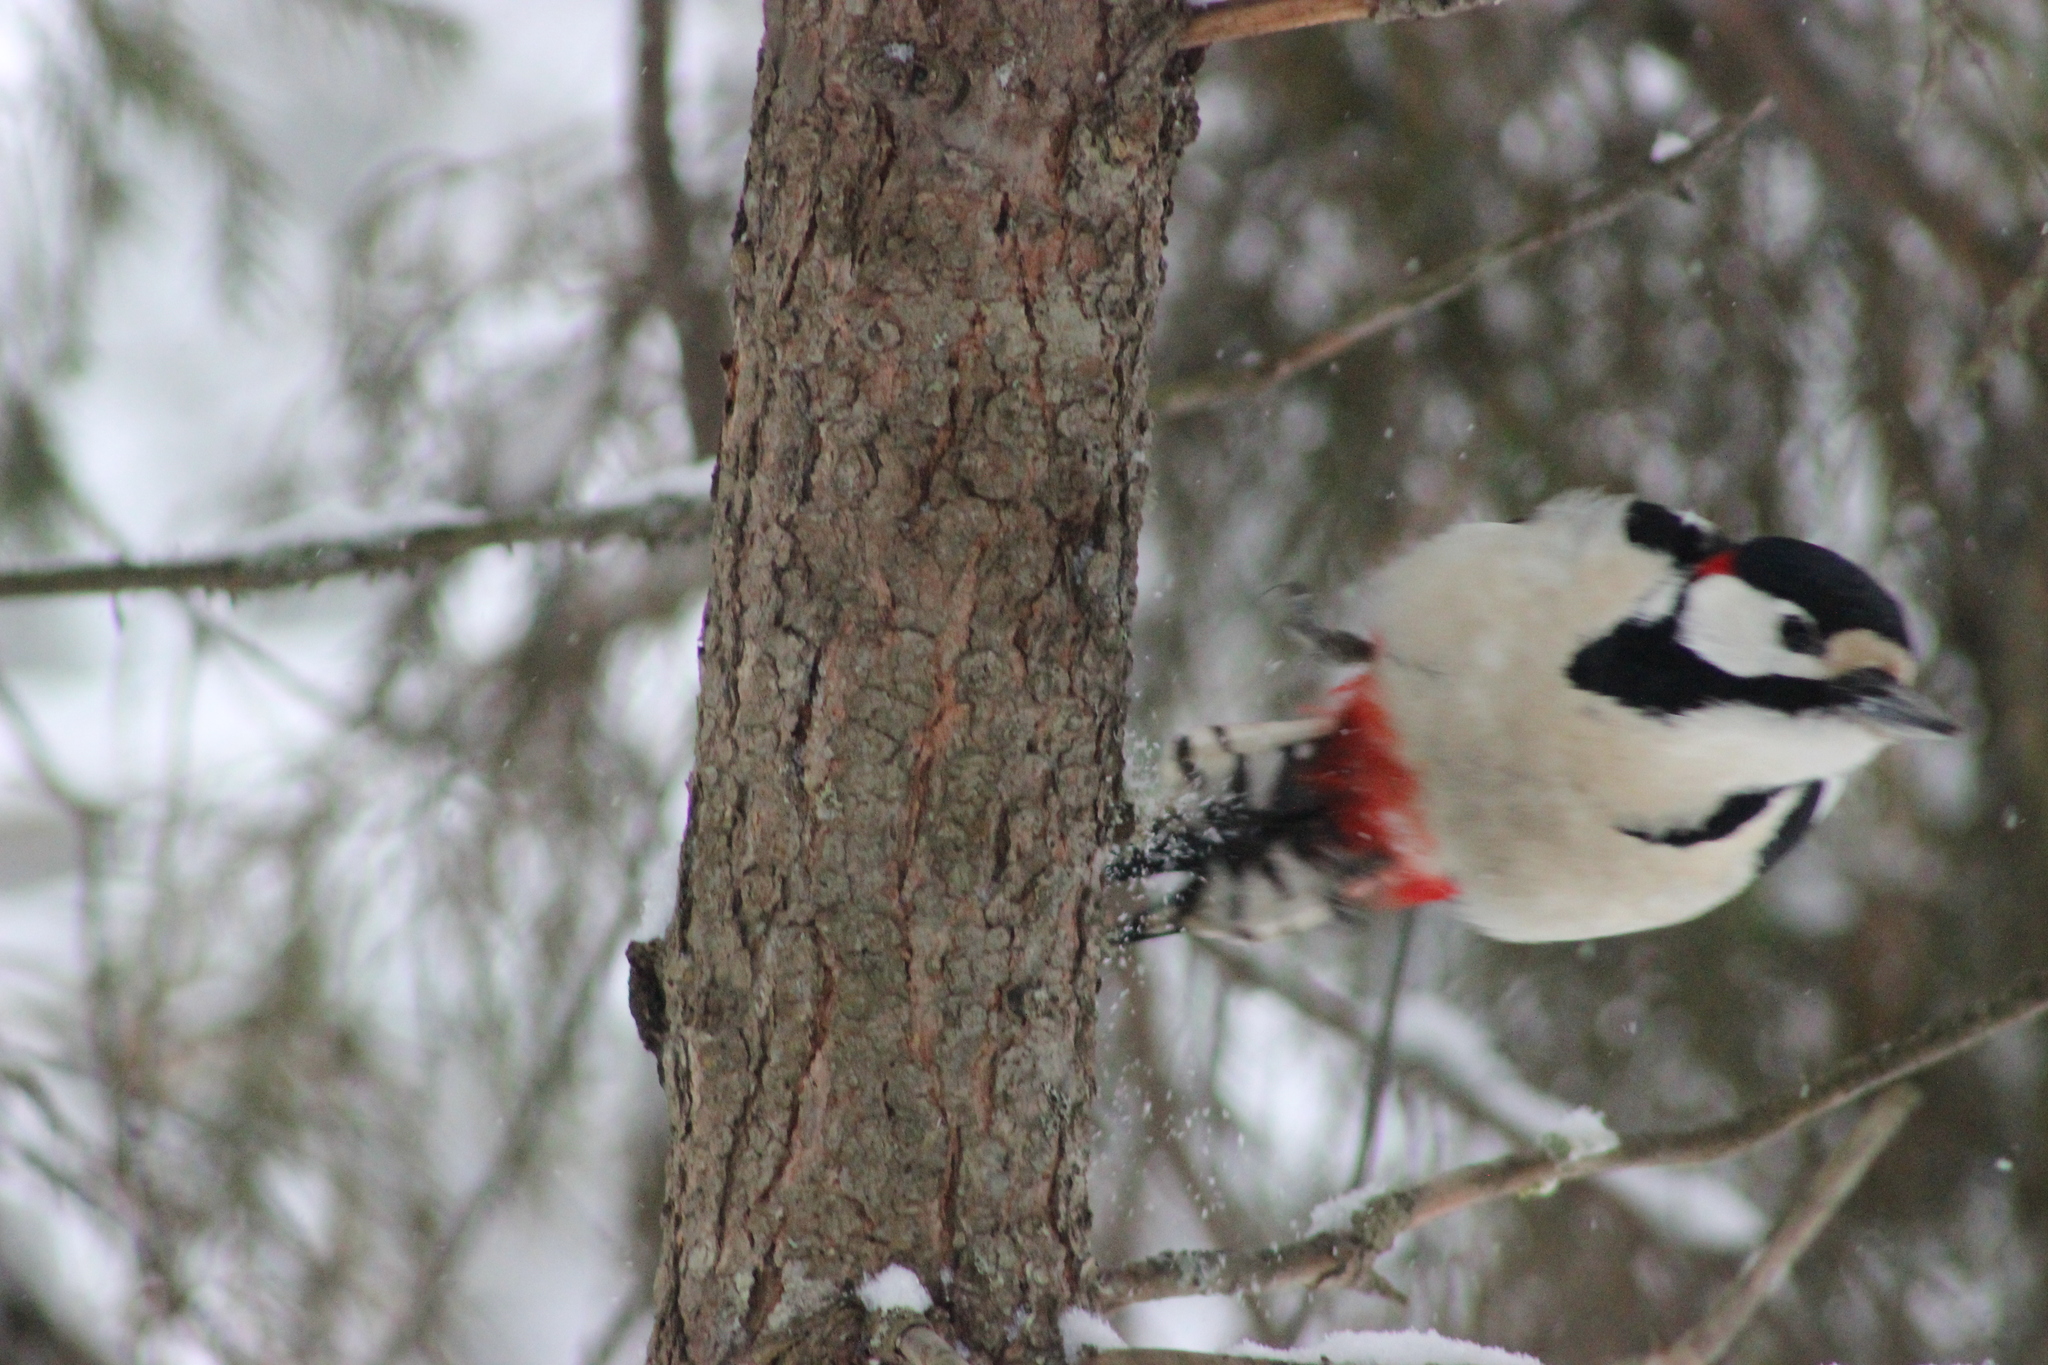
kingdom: Animalia
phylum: Chordata
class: Aves
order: Piciformes
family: Picidae
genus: Dendrocopos
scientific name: Dendrocopos major
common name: Great spotted woodpecker
